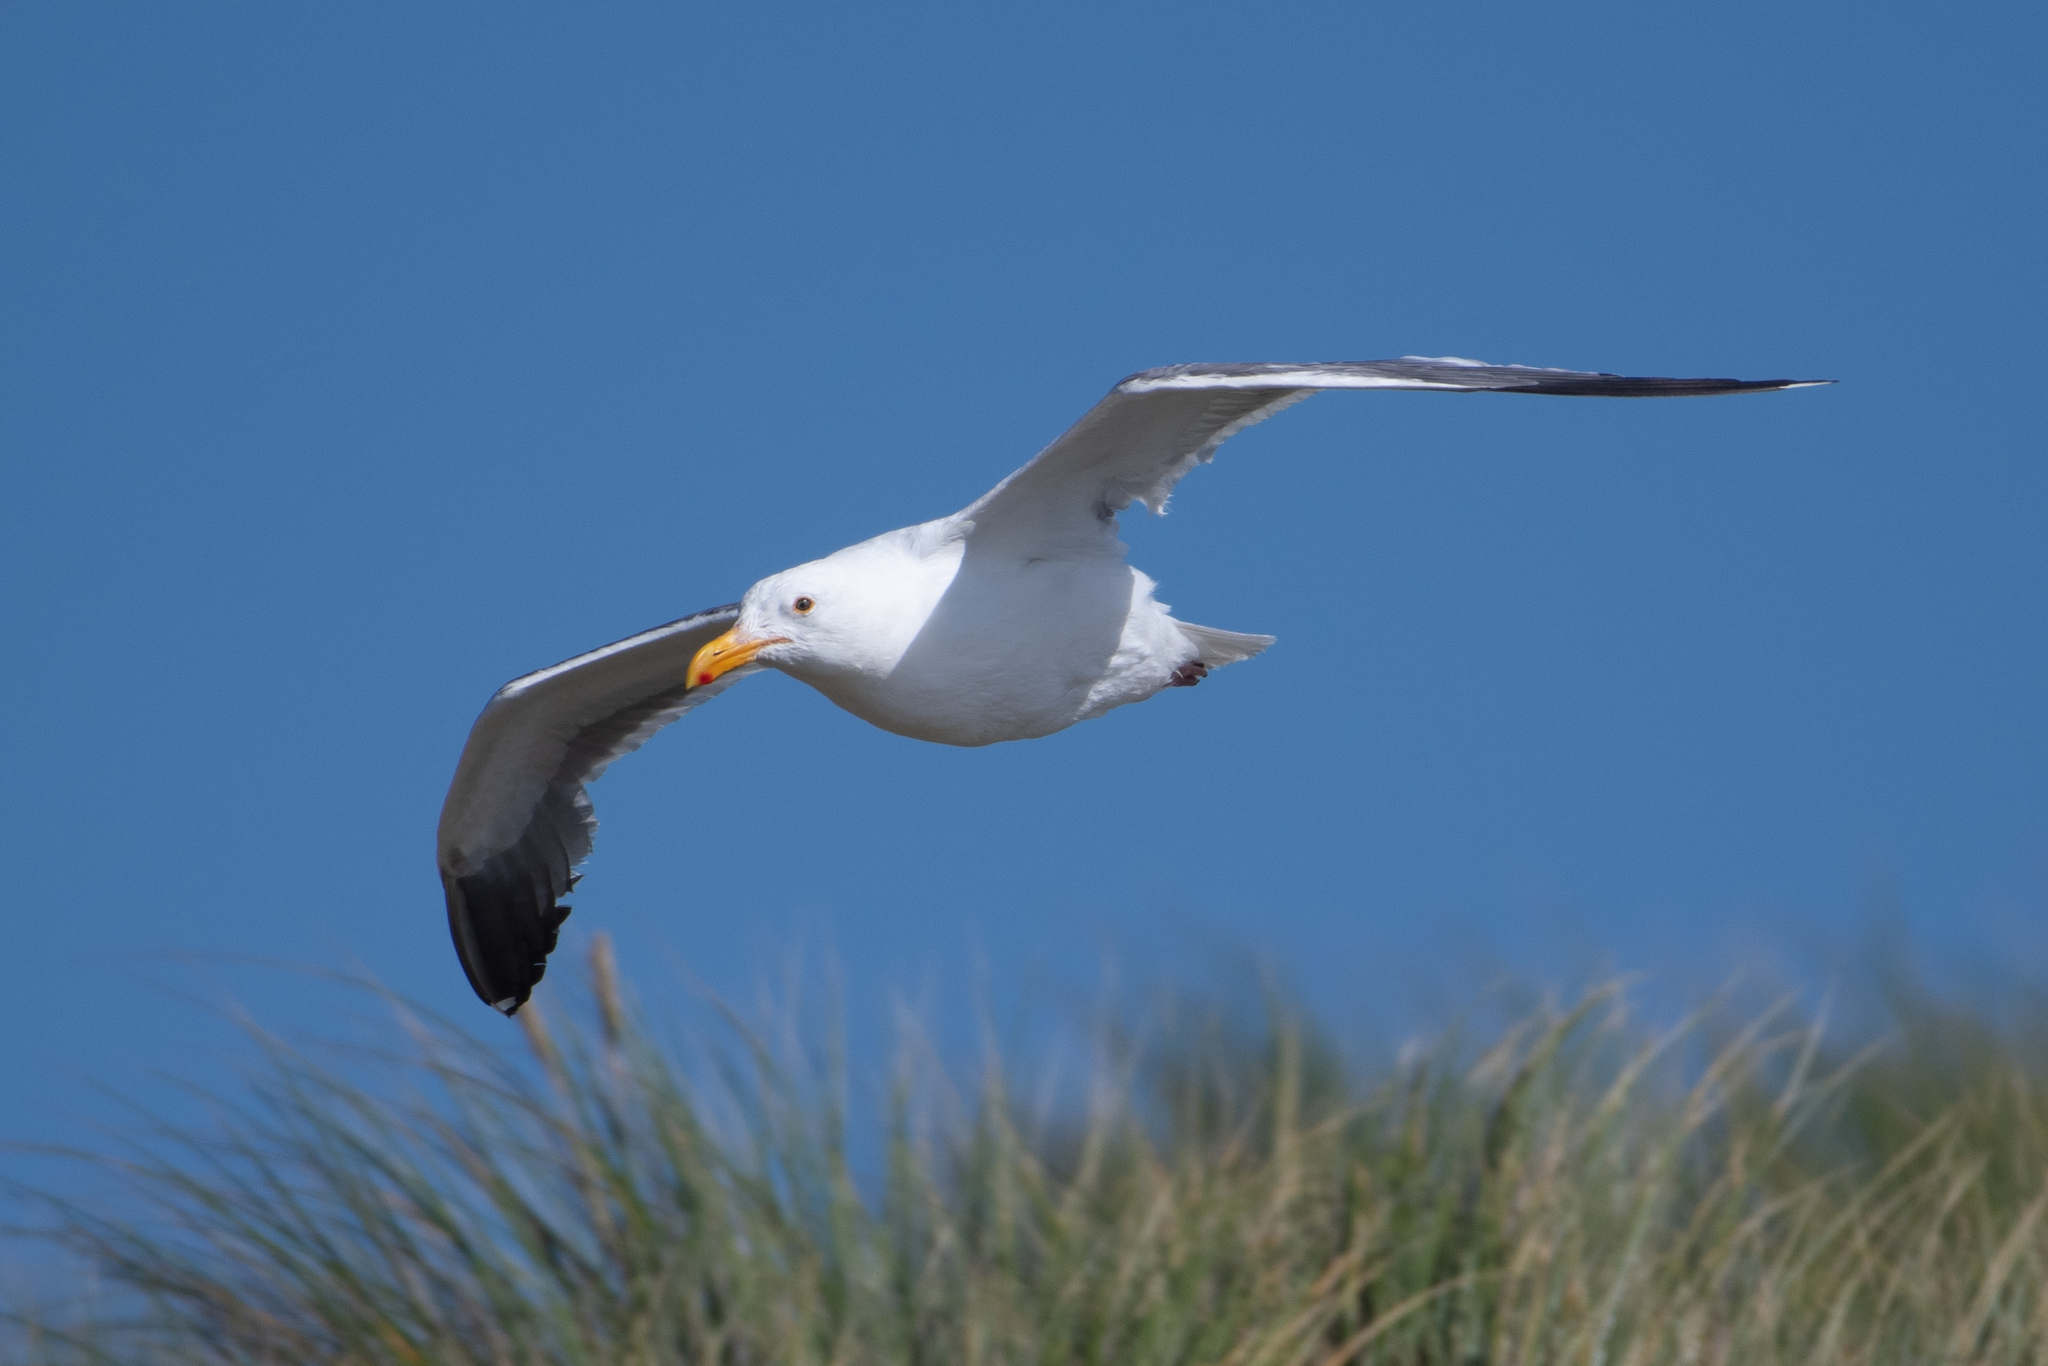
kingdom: Animalia
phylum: Chordata
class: Aves
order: Charadriiformes
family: Laridae
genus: Larus
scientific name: Larus occidentalis
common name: Western gull
